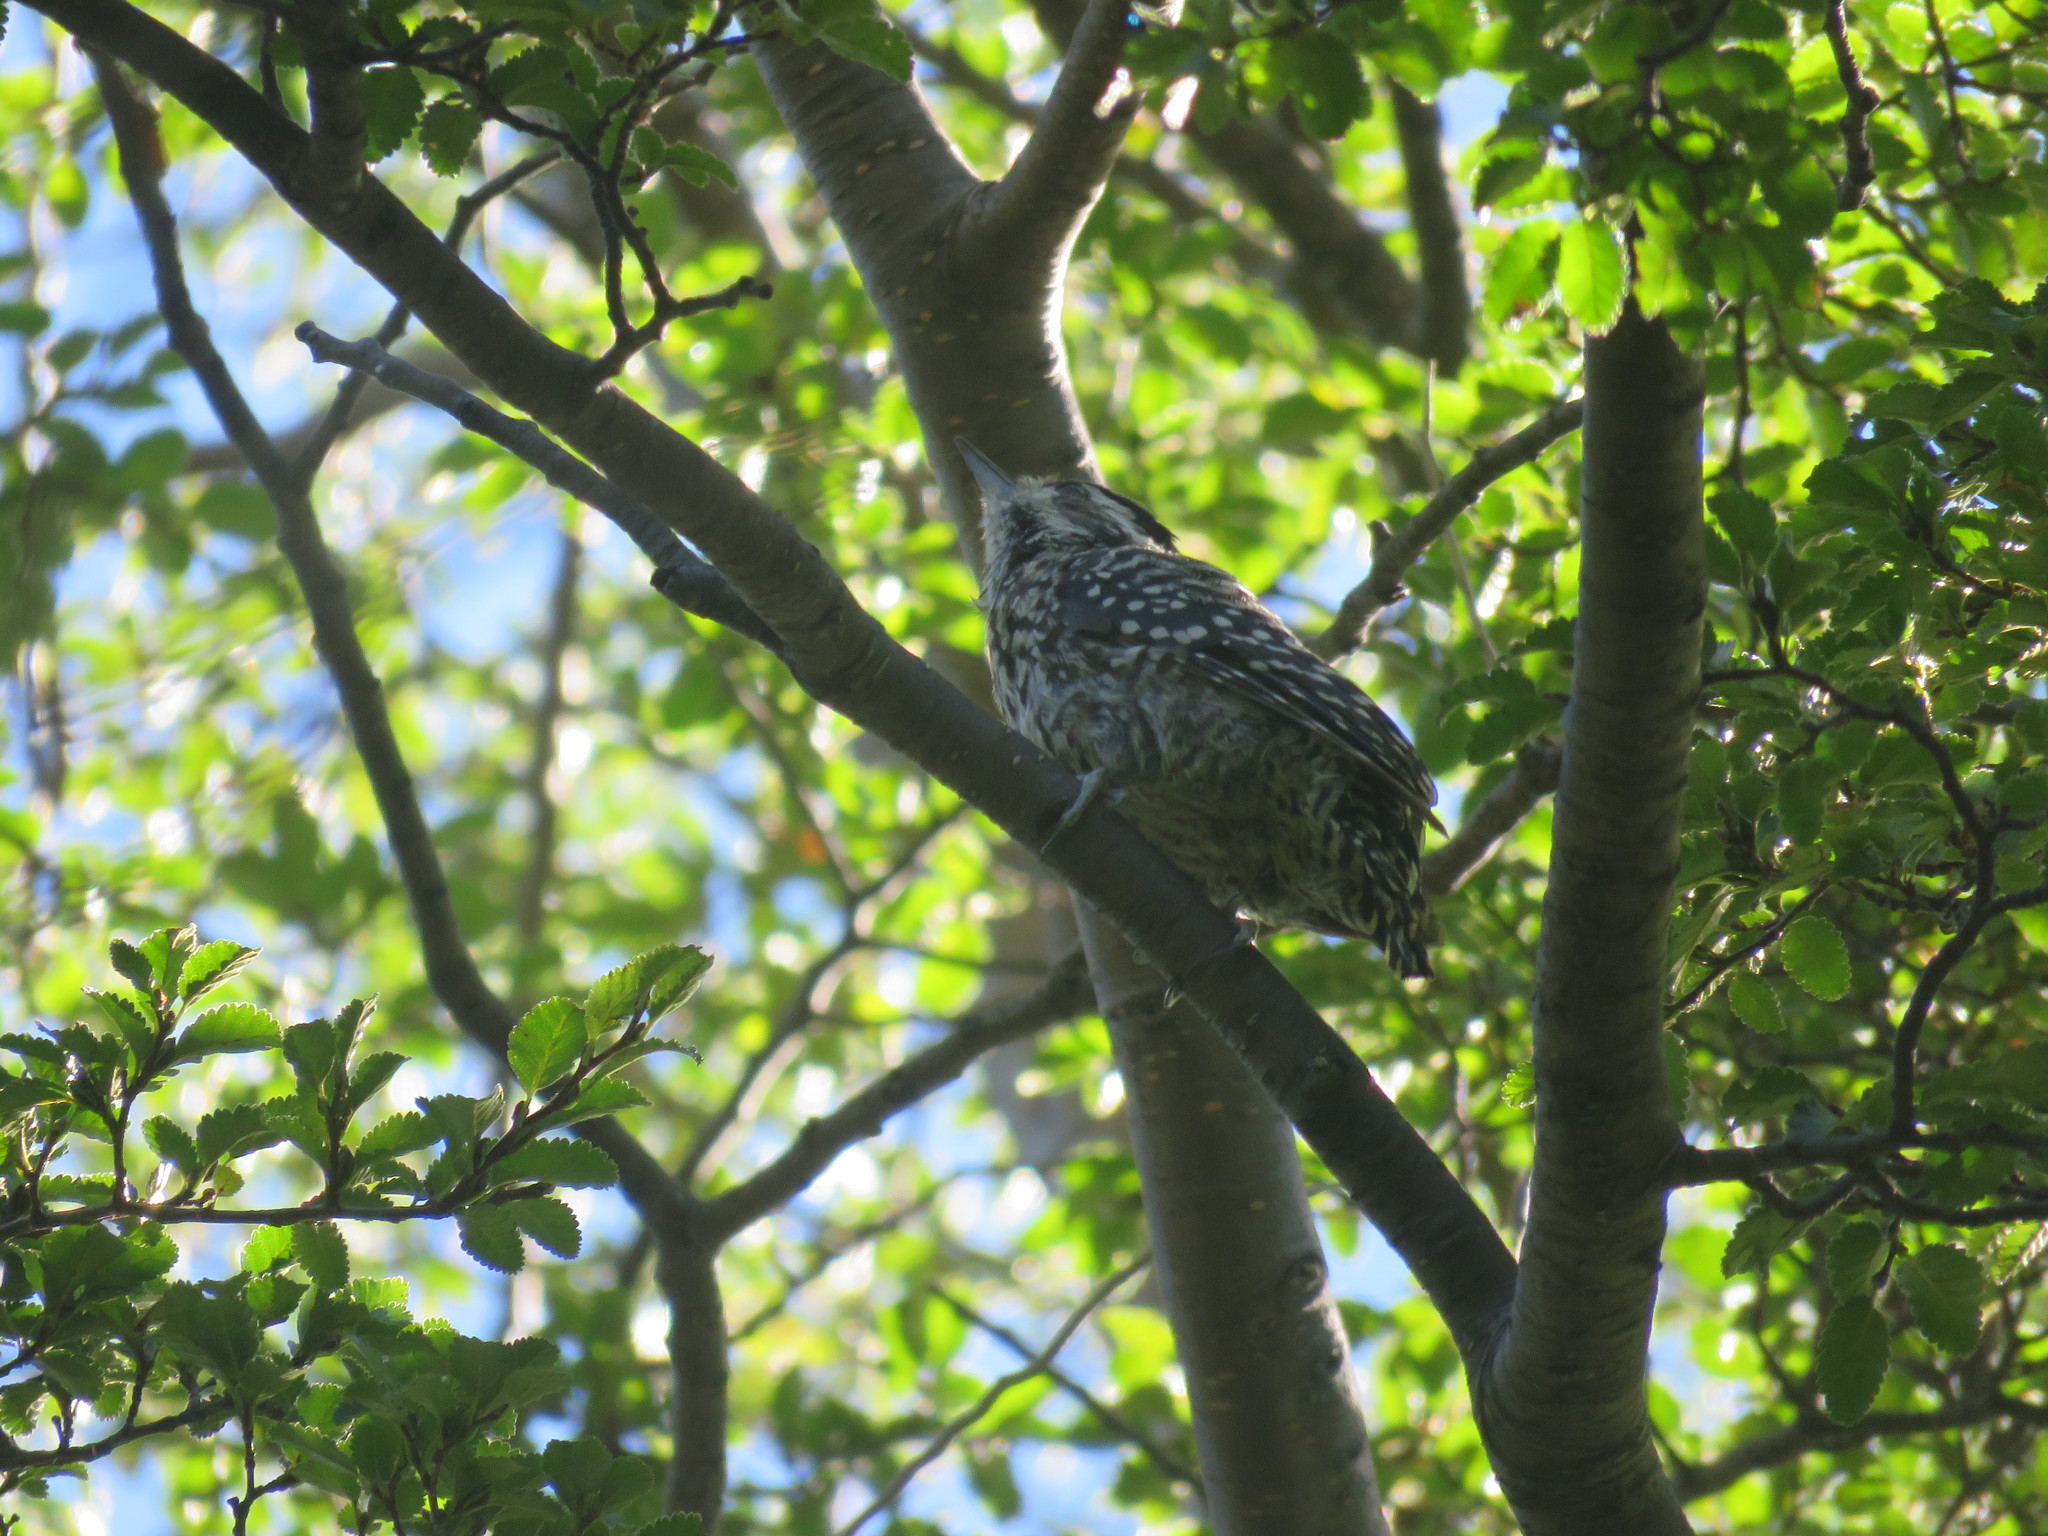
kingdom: Animalia
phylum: Chordata
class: Aves
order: Piciformes
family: Picidae
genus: Veniliornis
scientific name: Veniliornis lignarius
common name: Striped woodpecker
